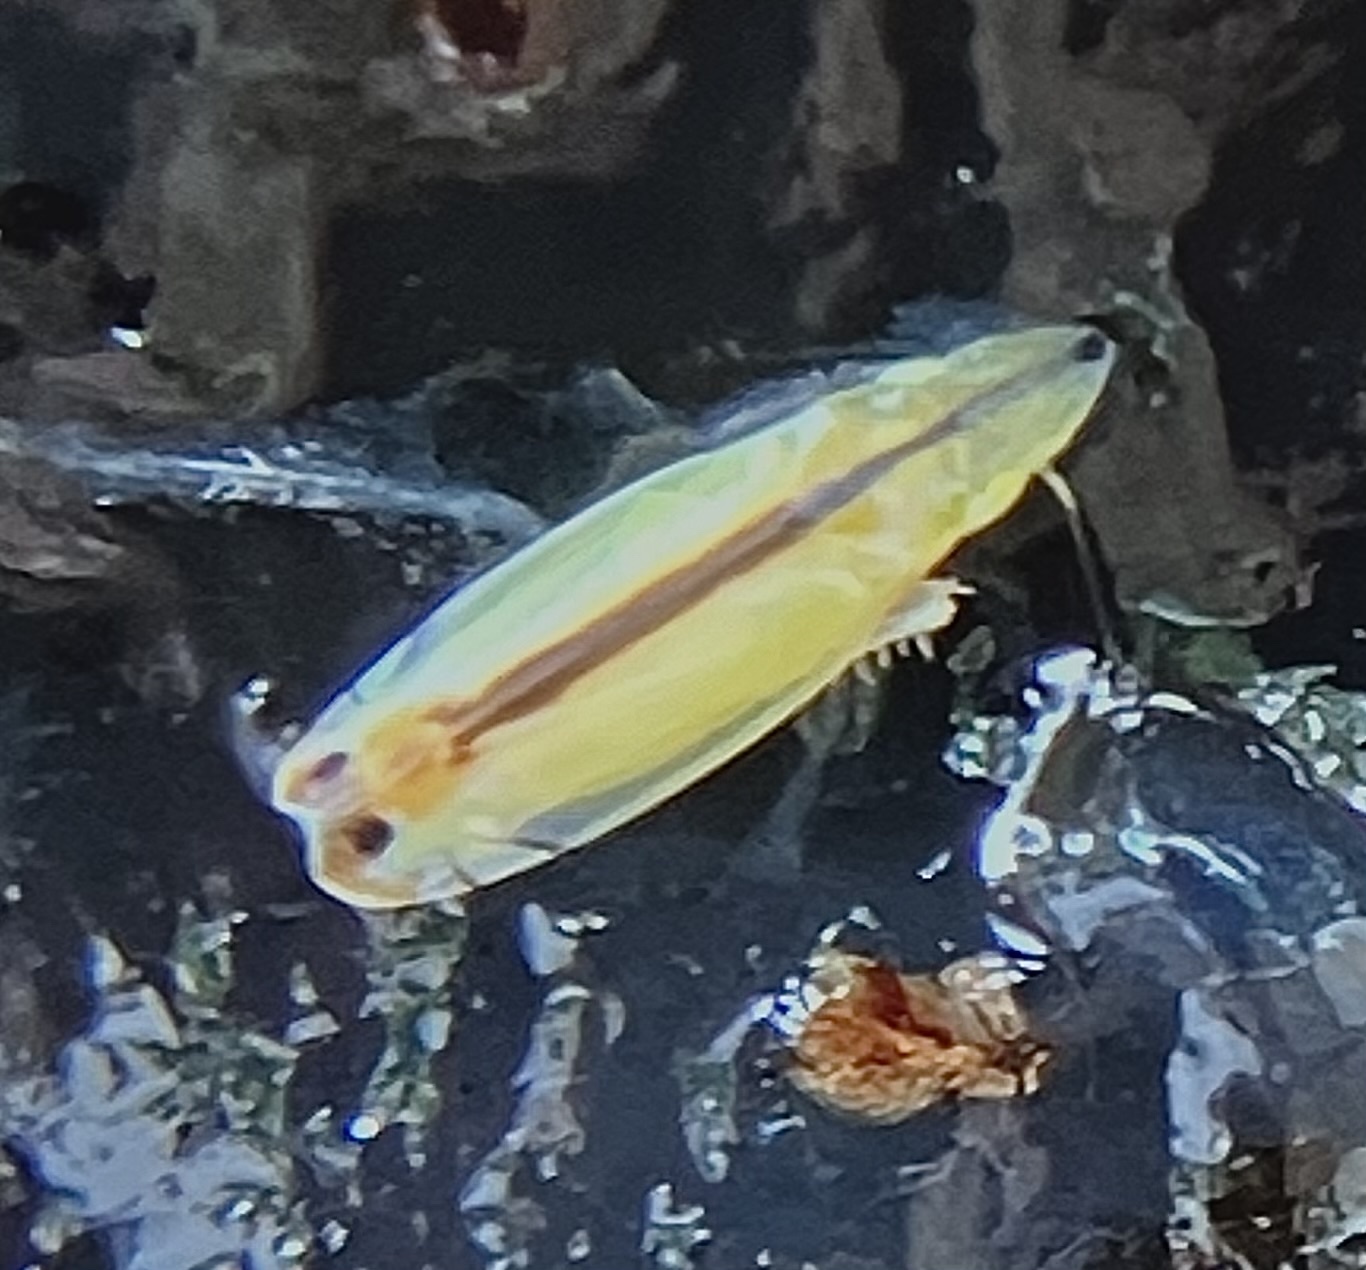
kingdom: Animalia
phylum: Arthropoda
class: Insecta
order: Hemiptera
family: Cicadellidae
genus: Sophonia
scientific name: Sophonia orientalis
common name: Two-spotted leafhopper
